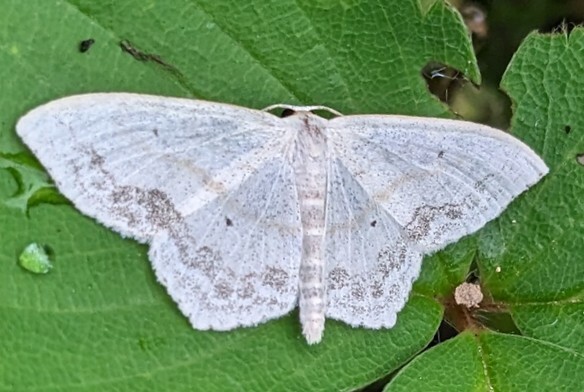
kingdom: Animalia
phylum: Arthropoda
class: Insecta
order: Lepidoptera
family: Geometridae
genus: Scopula
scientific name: Scopula limboundata
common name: Large lace border
